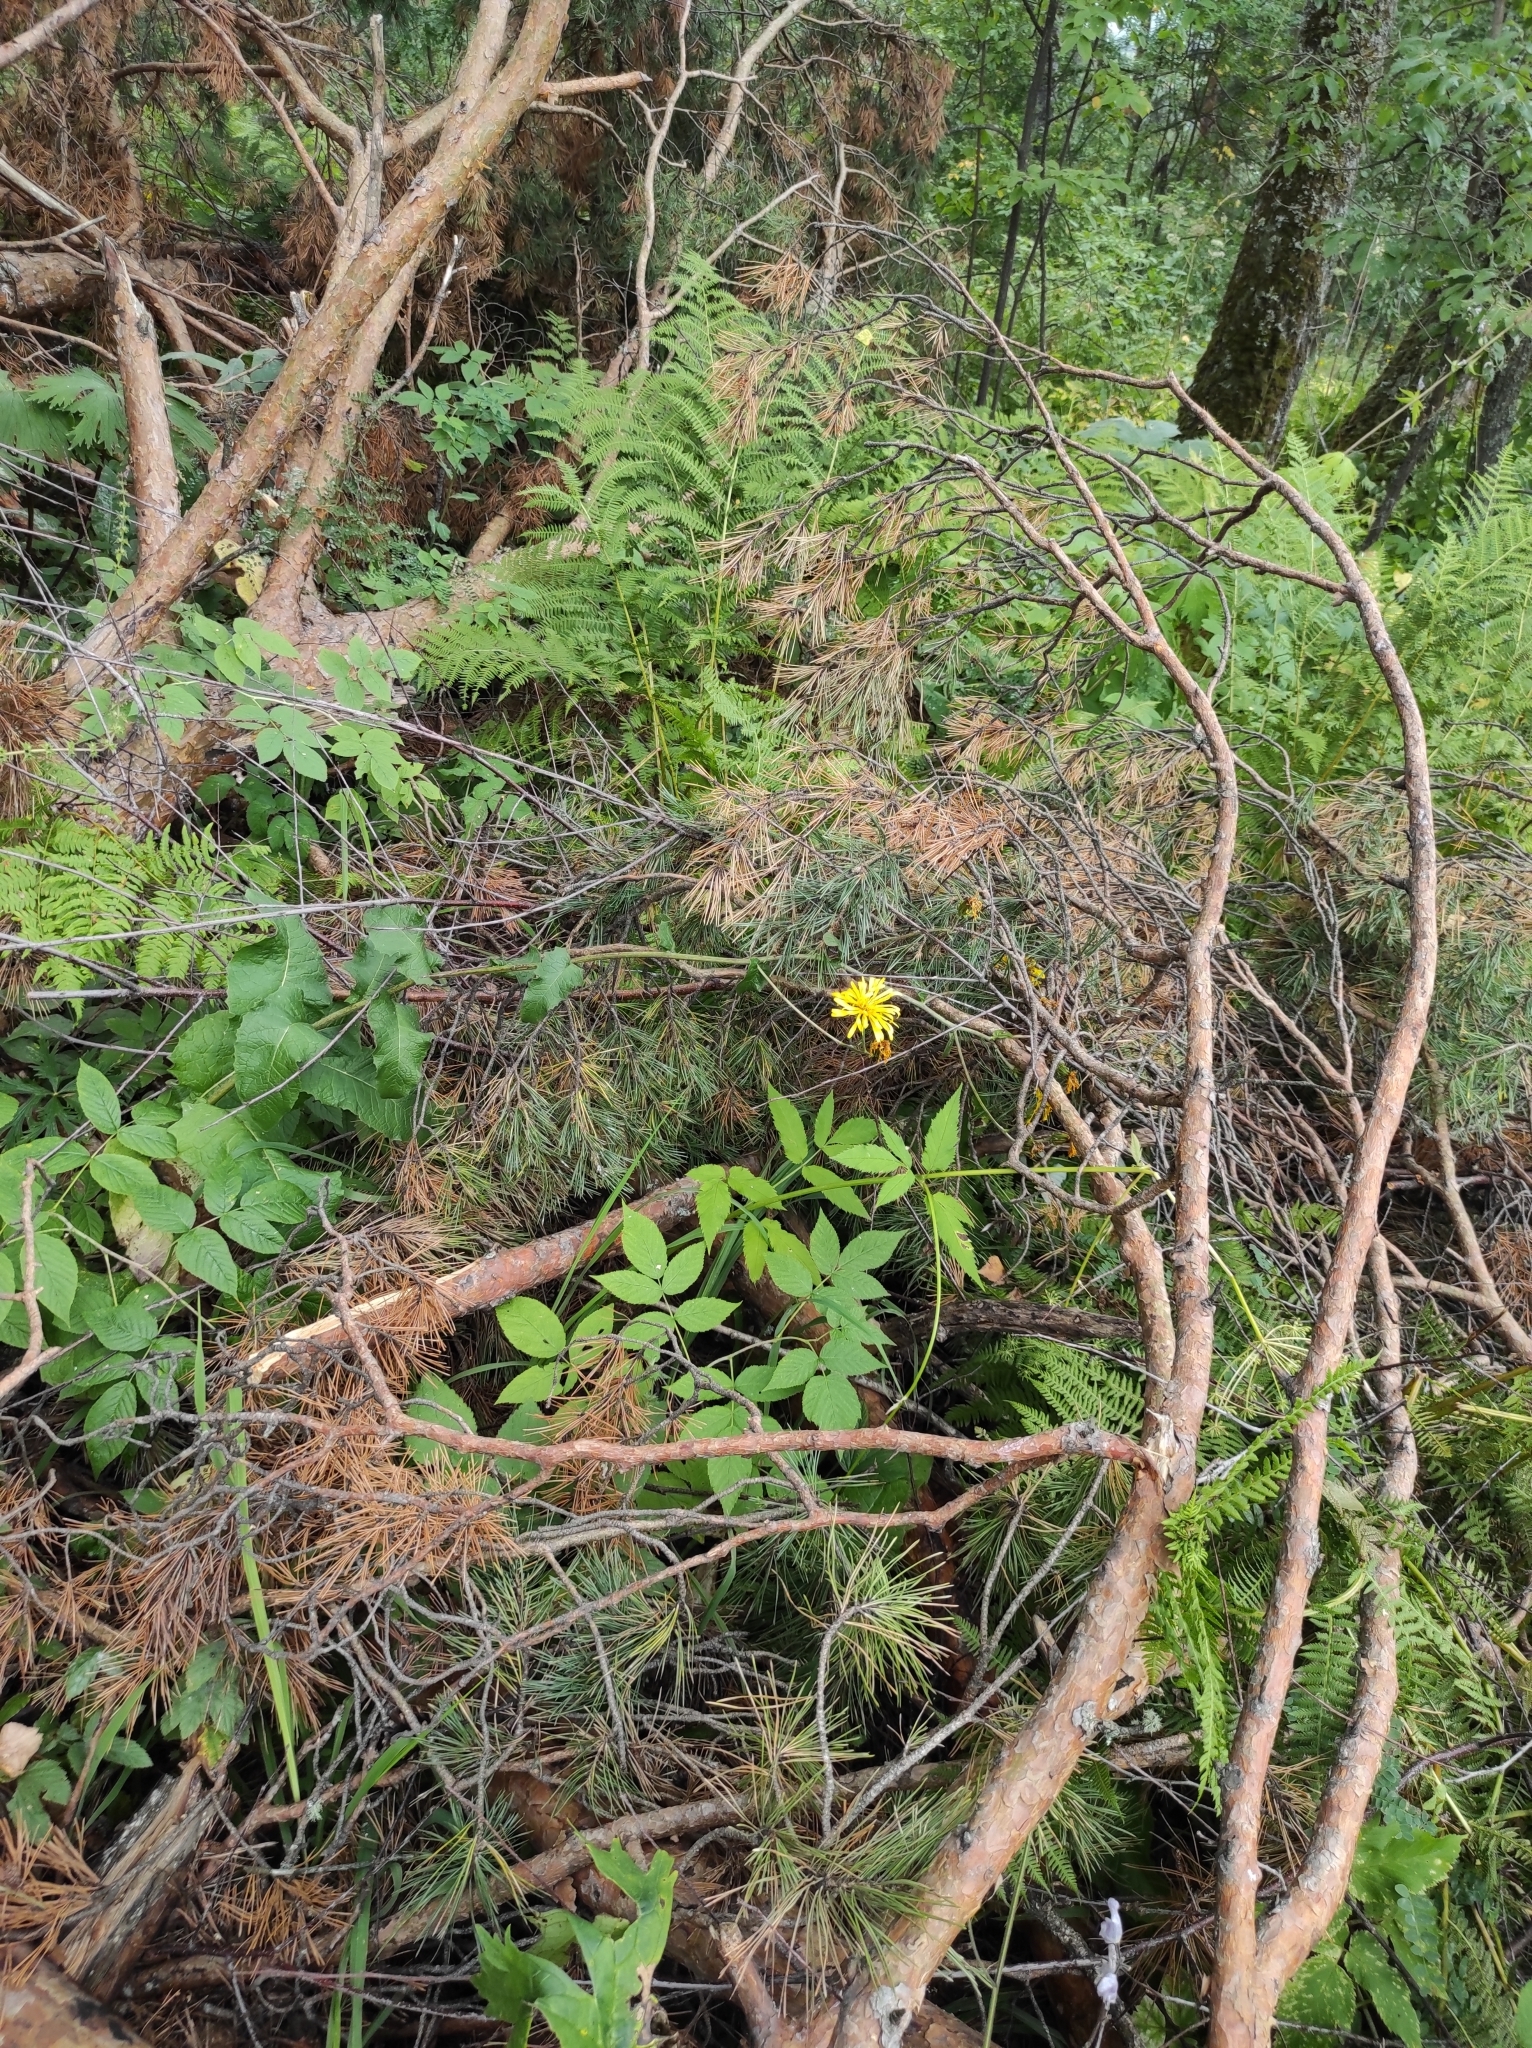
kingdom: Plantae
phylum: Tracheophyta
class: Magnoliopsida
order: Asterales
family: Asteraceae
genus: Crepis
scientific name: Crepis sibirica
